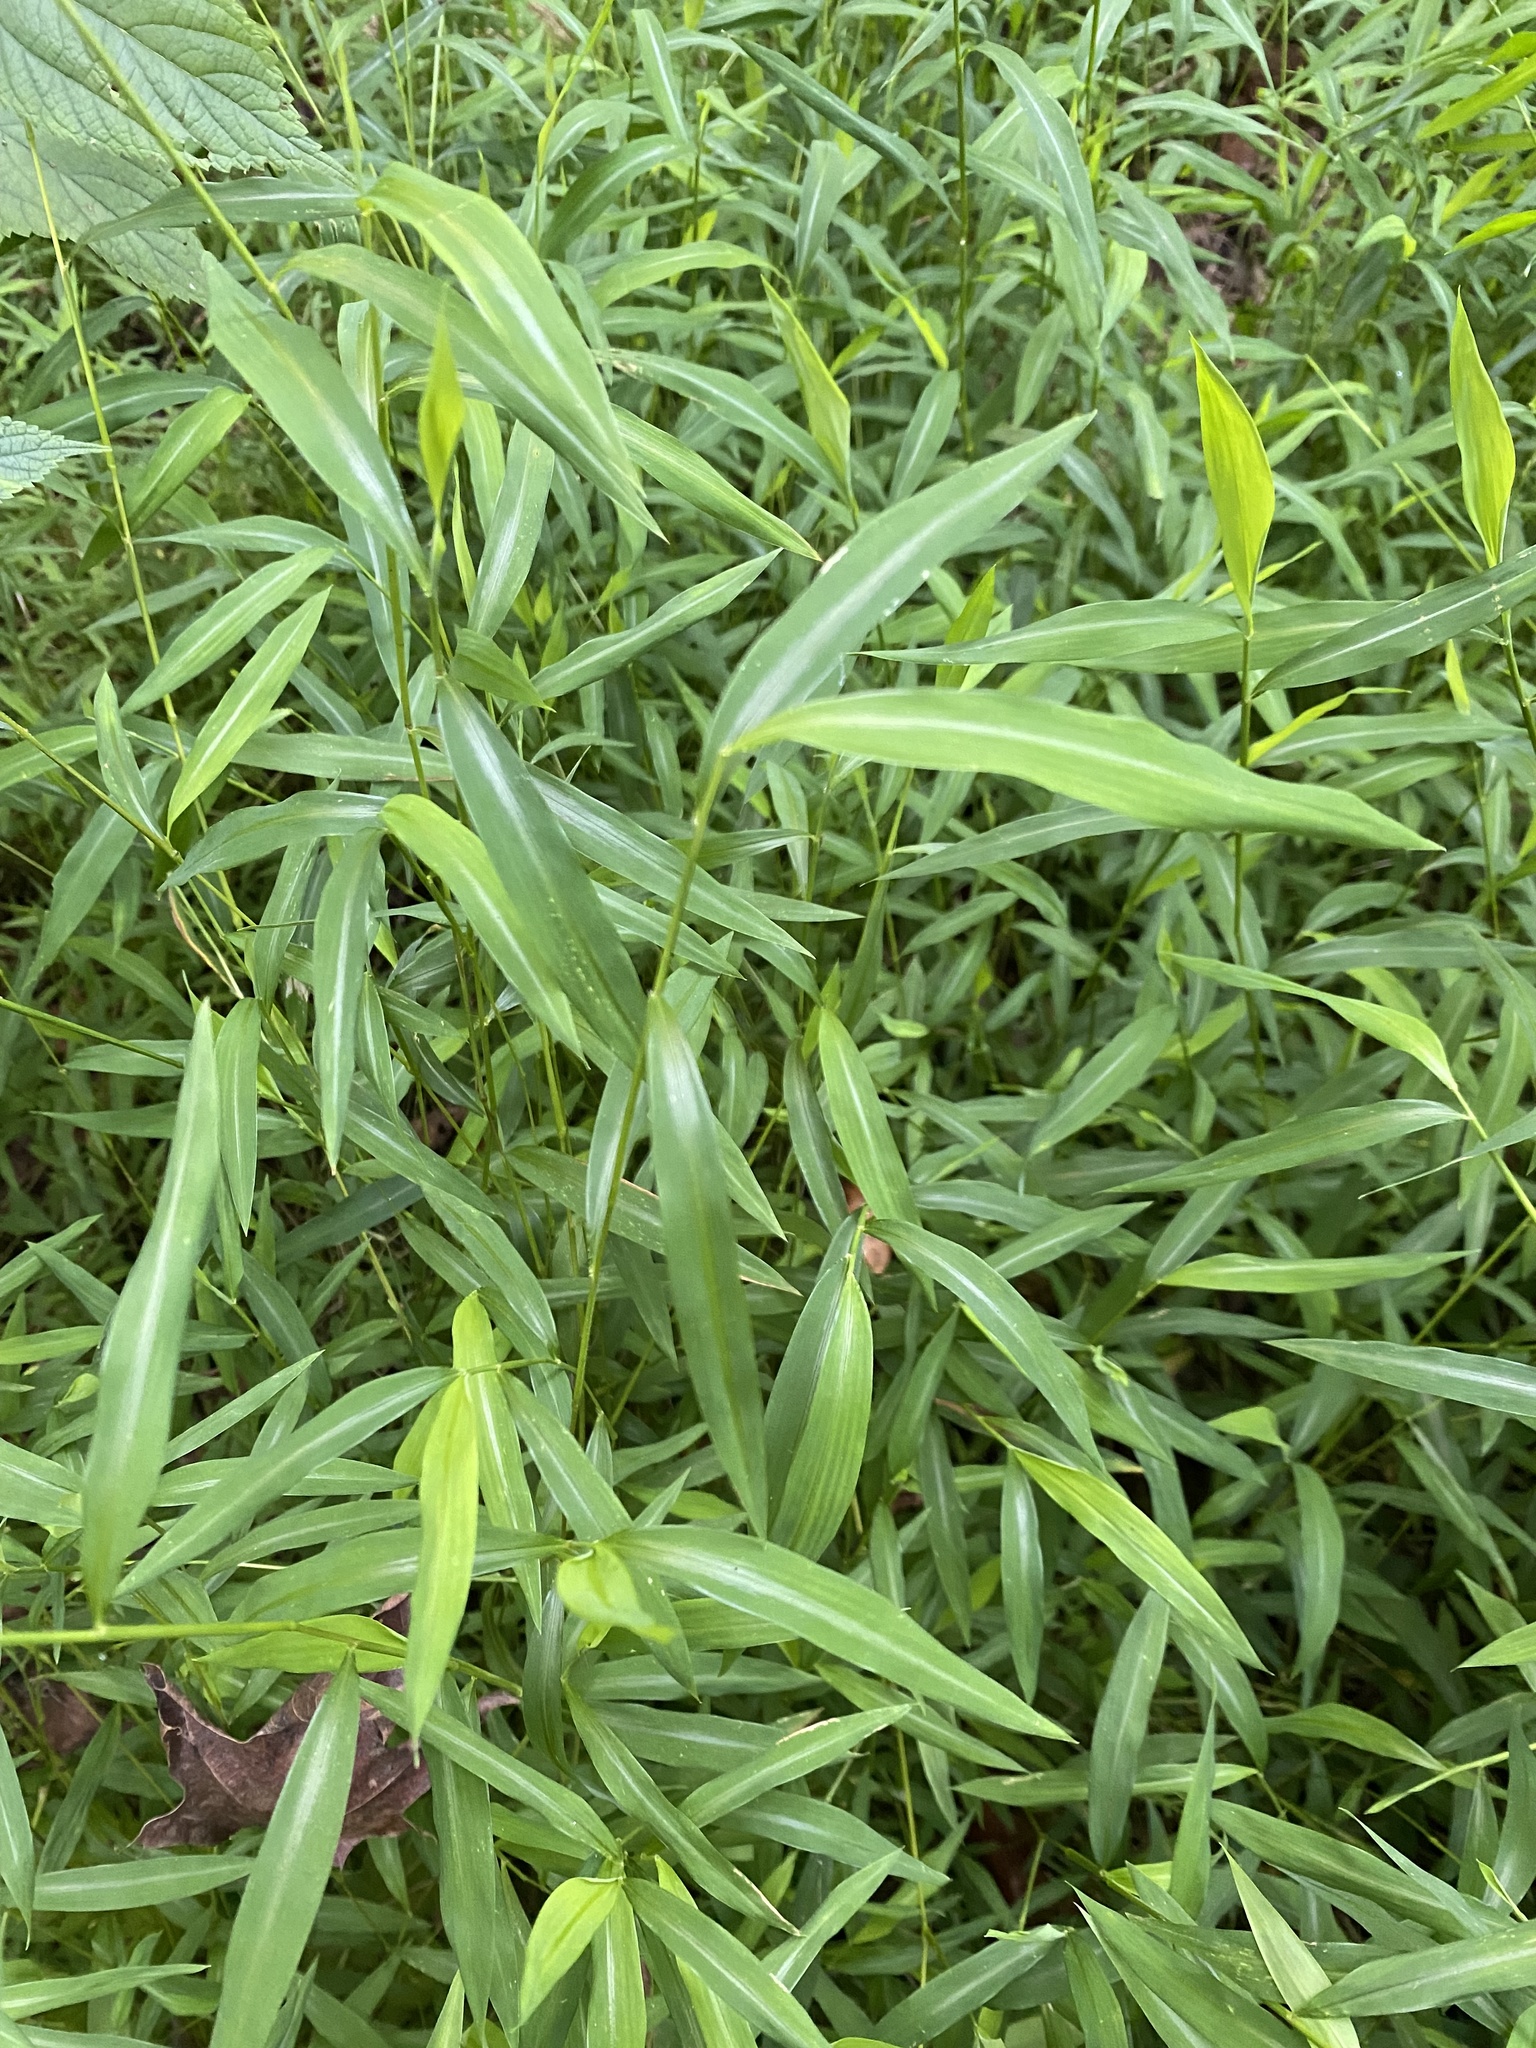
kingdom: Plantae
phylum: Tracheophyta
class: Liliopsida
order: Poales
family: Poaceae
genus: Microstegium
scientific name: Microstegium vimineum
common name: Japanese stiltgrass
